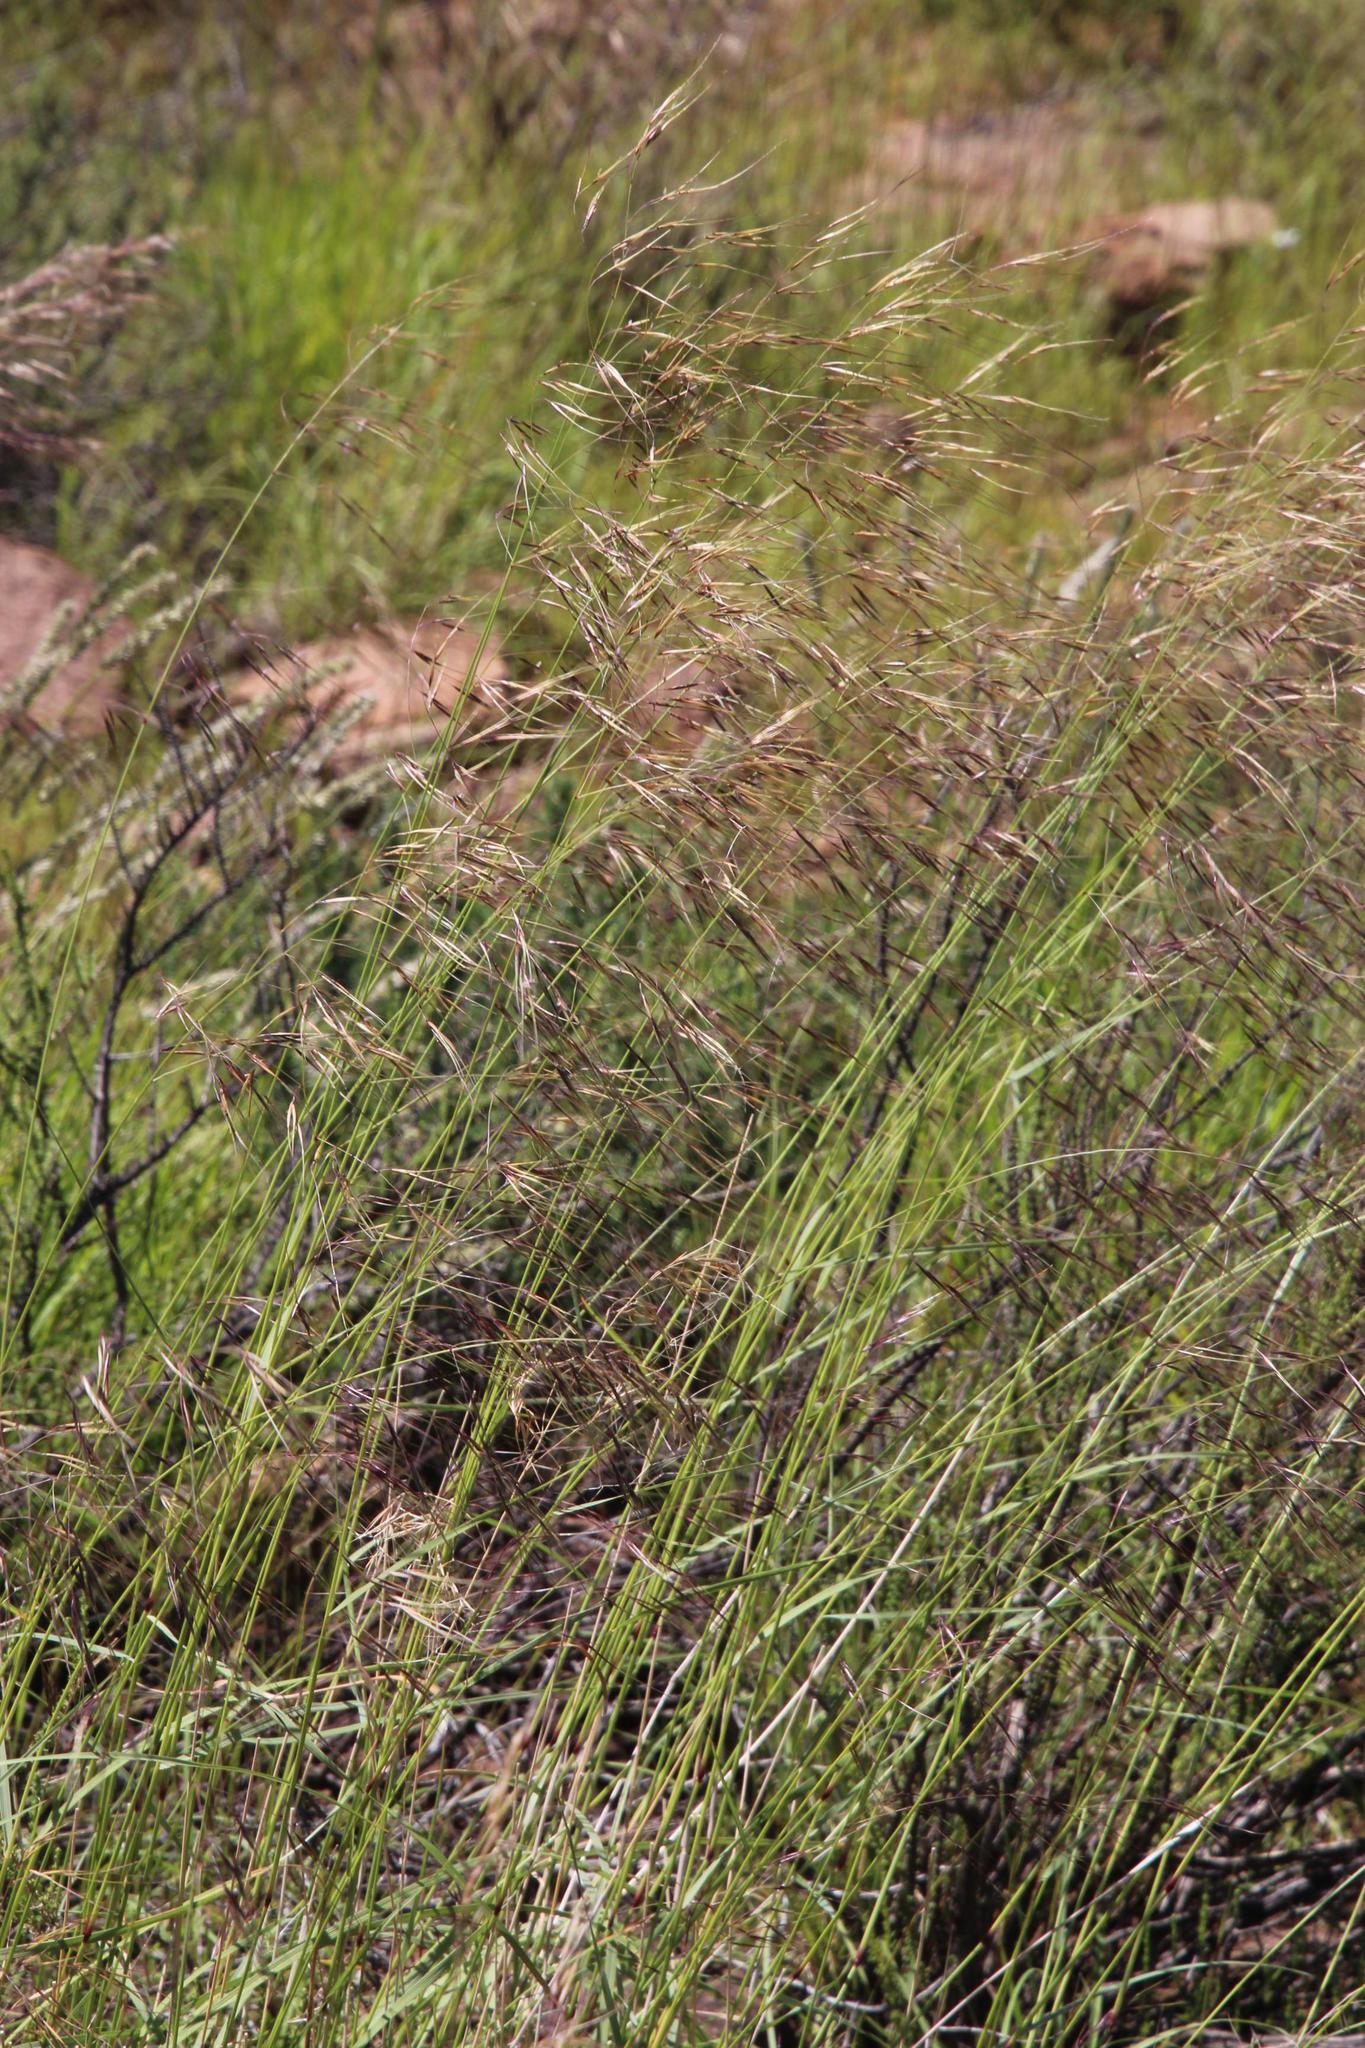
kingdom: Plantae
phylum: Tracheophyta
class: Liliopsida
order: Poales
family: Poaceae
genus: Aristida
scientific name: Aristida diffusa
